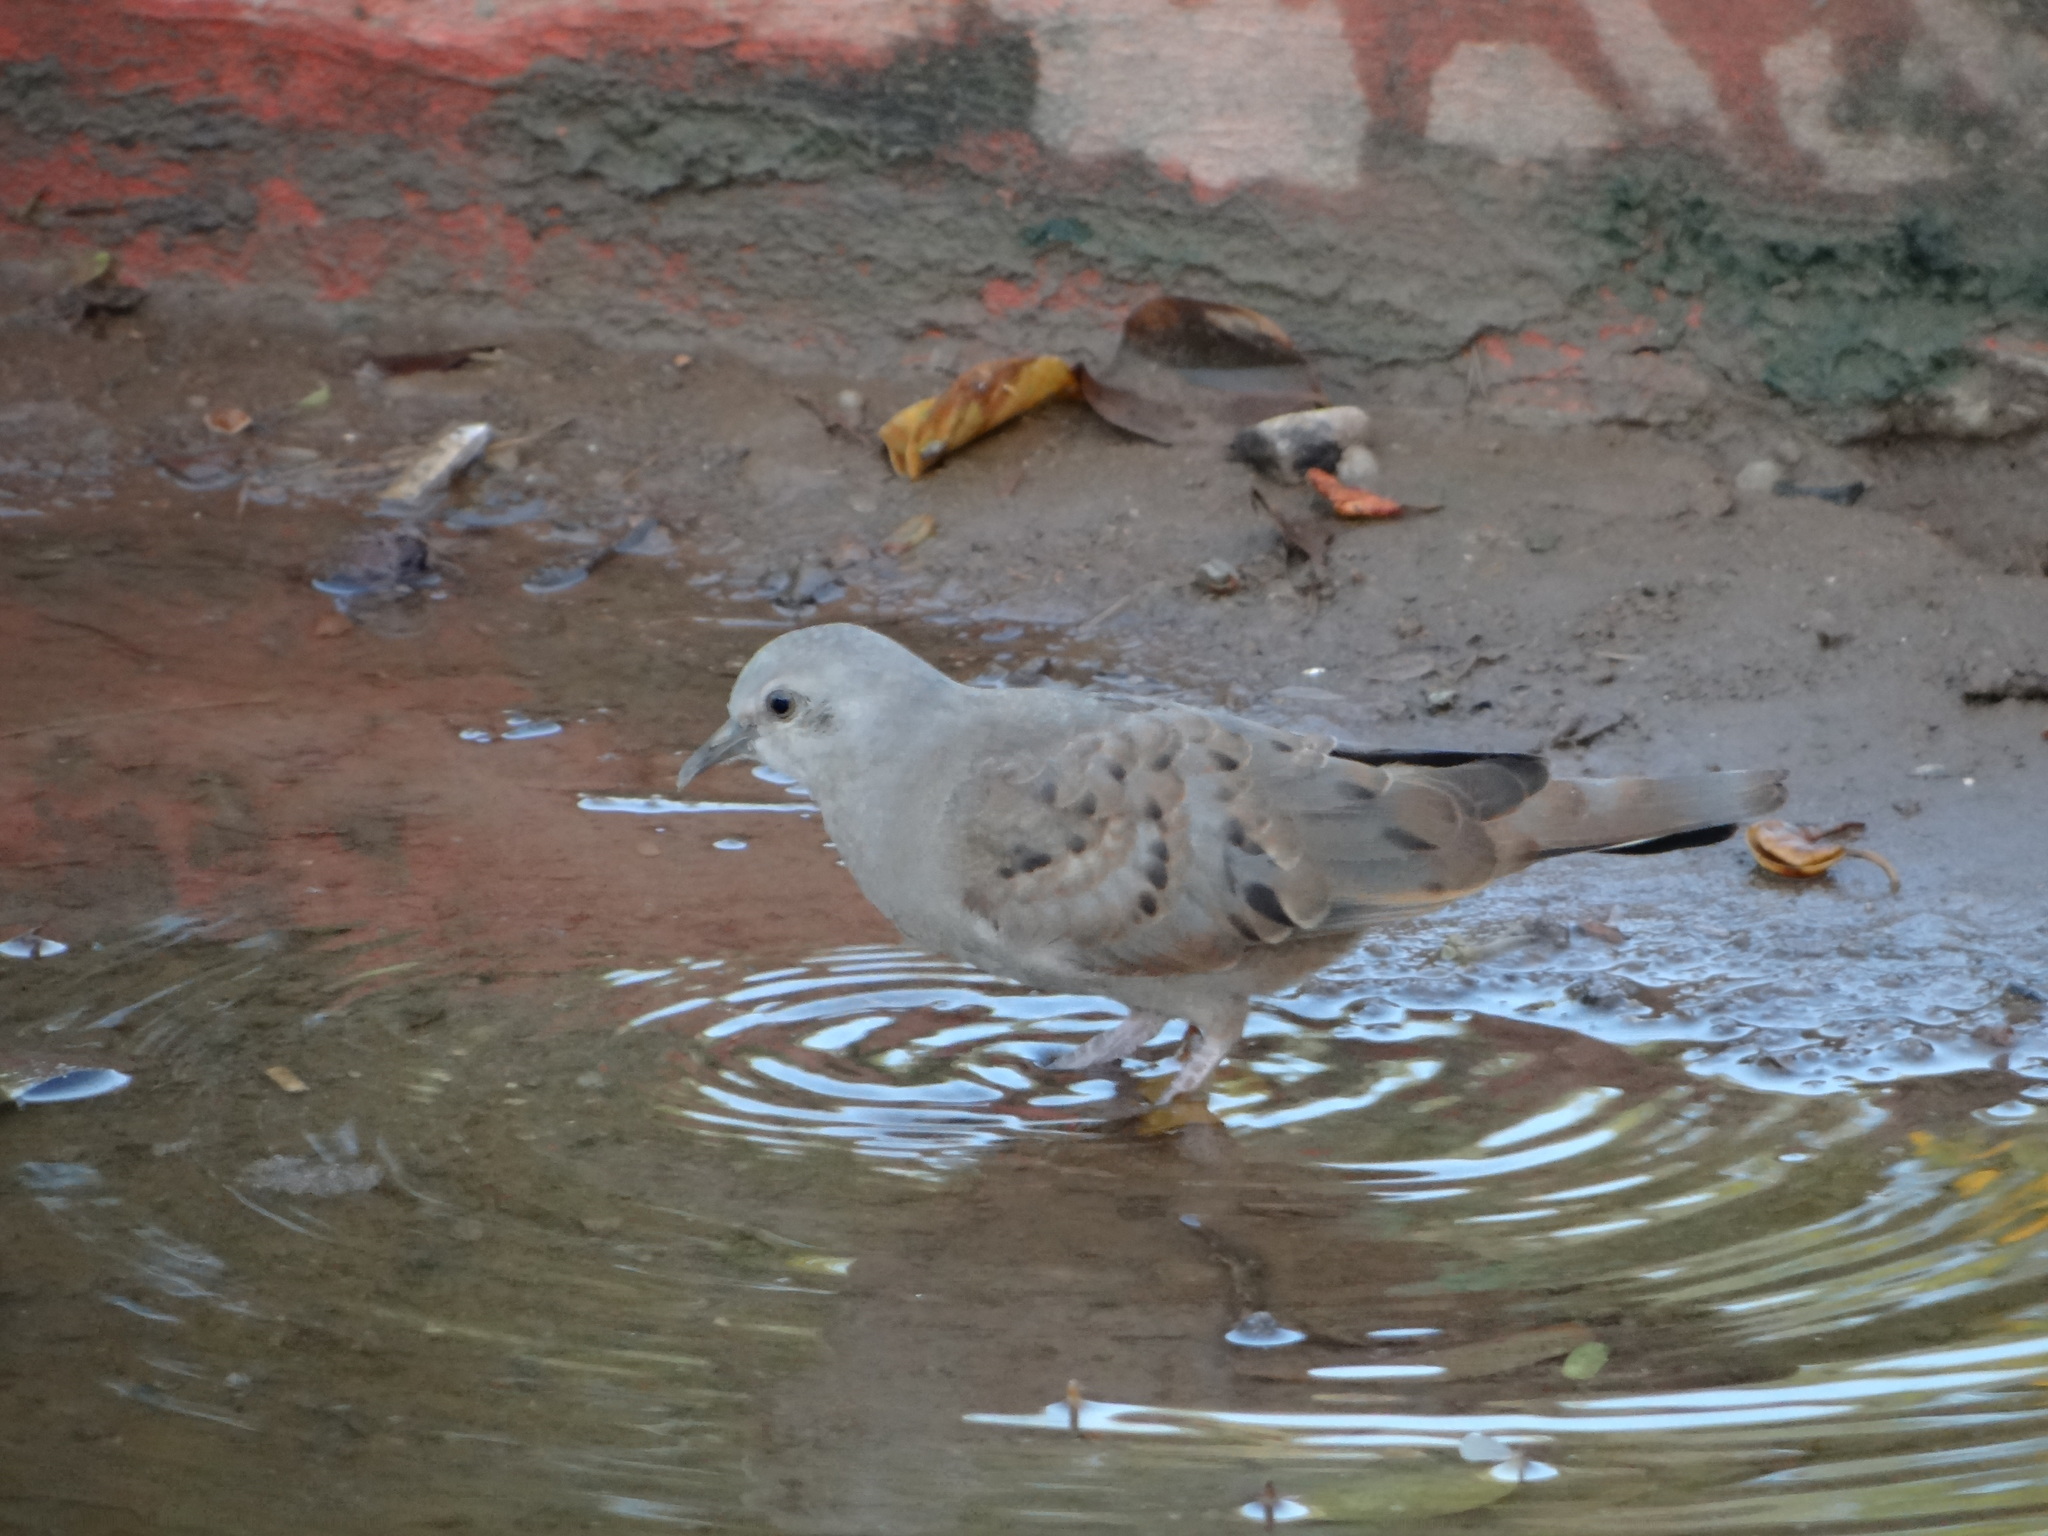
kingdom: Animalia
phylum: Chordata
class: Aves
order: Columbiformes
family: Columbidae
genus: Columbina
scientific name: Columbina minuta
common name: Plain-breasted ground dove
